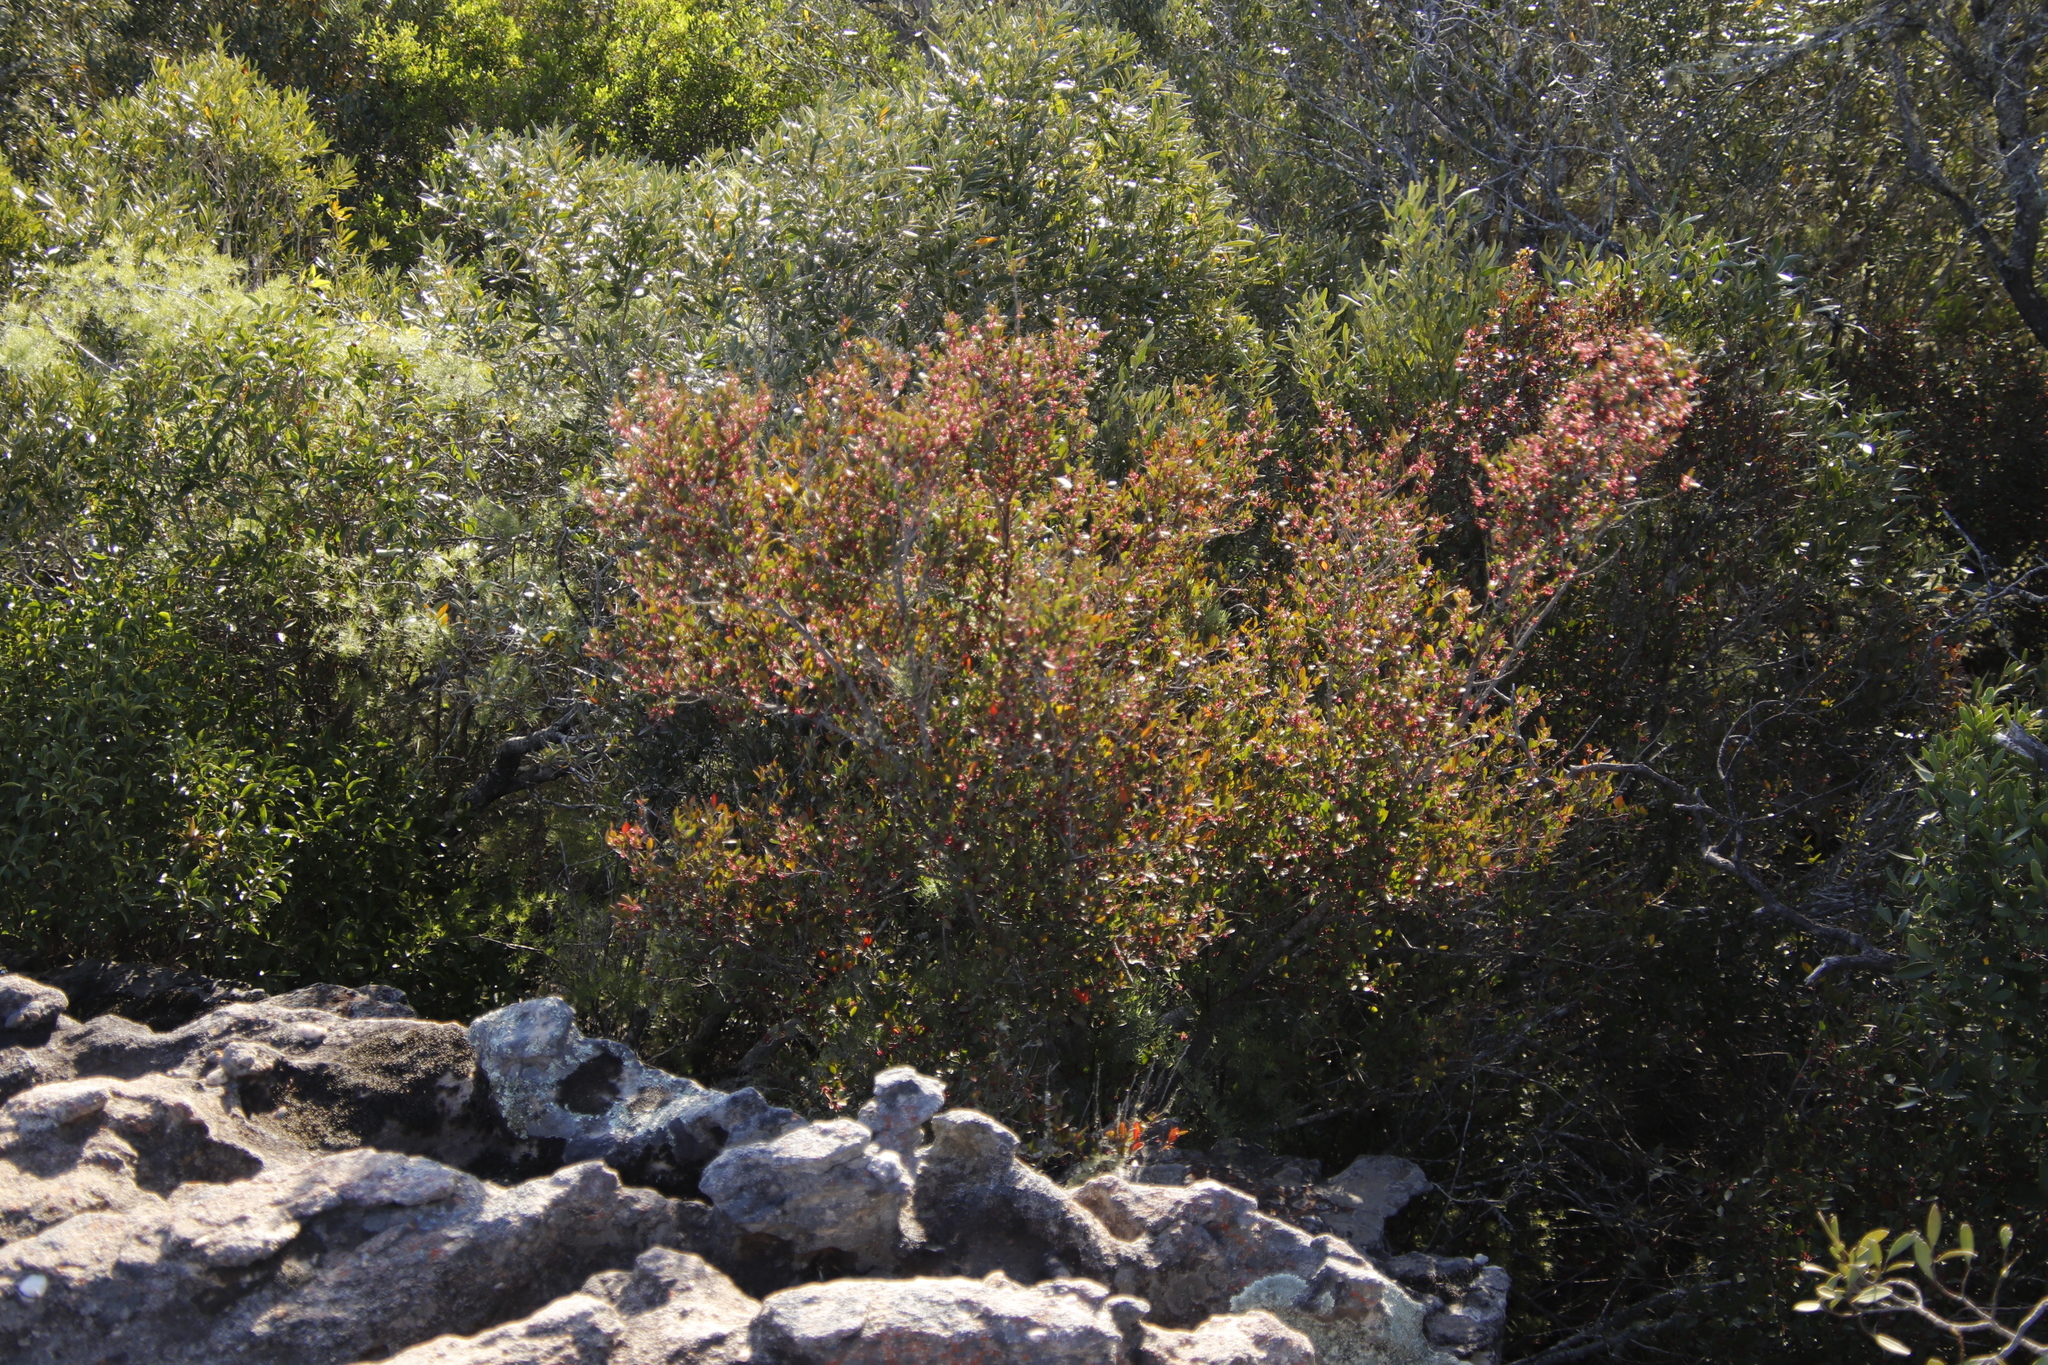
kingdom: Plantae
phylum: Tracheophyta
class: Magnoliopsida
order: Celastrales
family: Celastraceae
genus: Gymnosporia
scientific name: Gymnosporia acuminata
